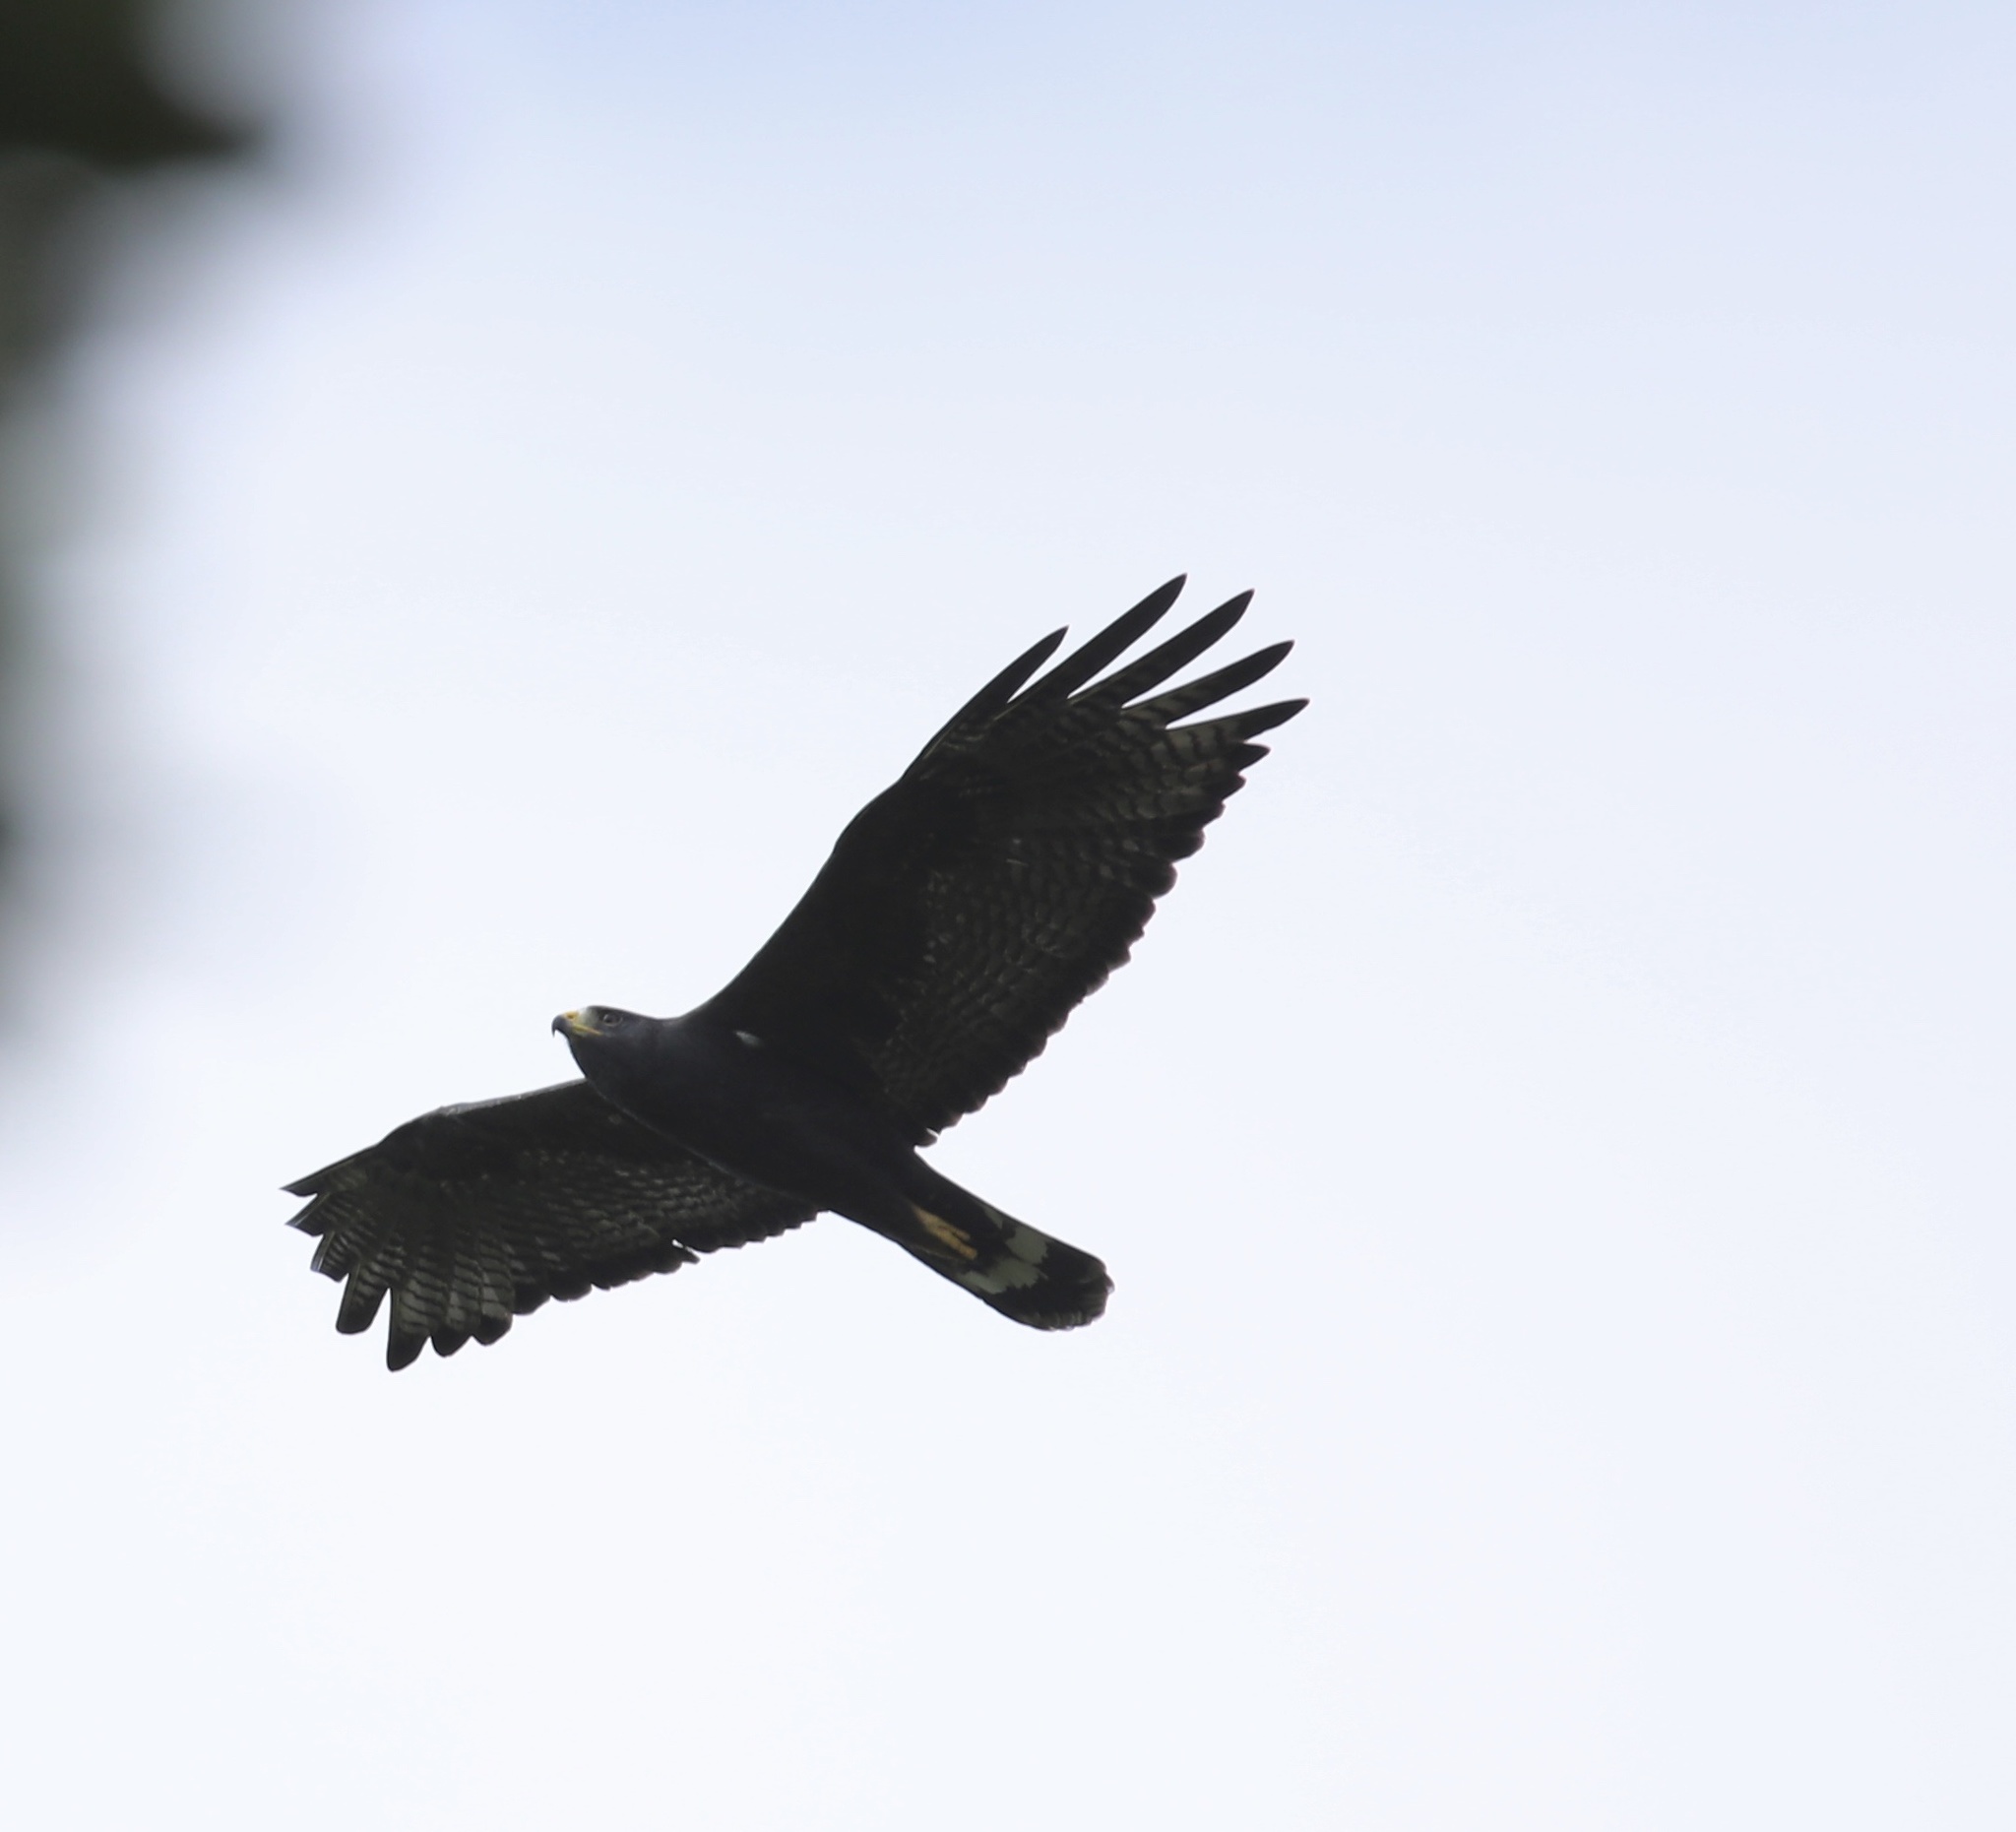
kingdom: Animalia
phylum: Chordata
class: Aves
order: Accipitriformes
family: Accipitridae
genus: Buteo
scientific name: Buteo albonotatus
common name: Zone-tailed hawk
